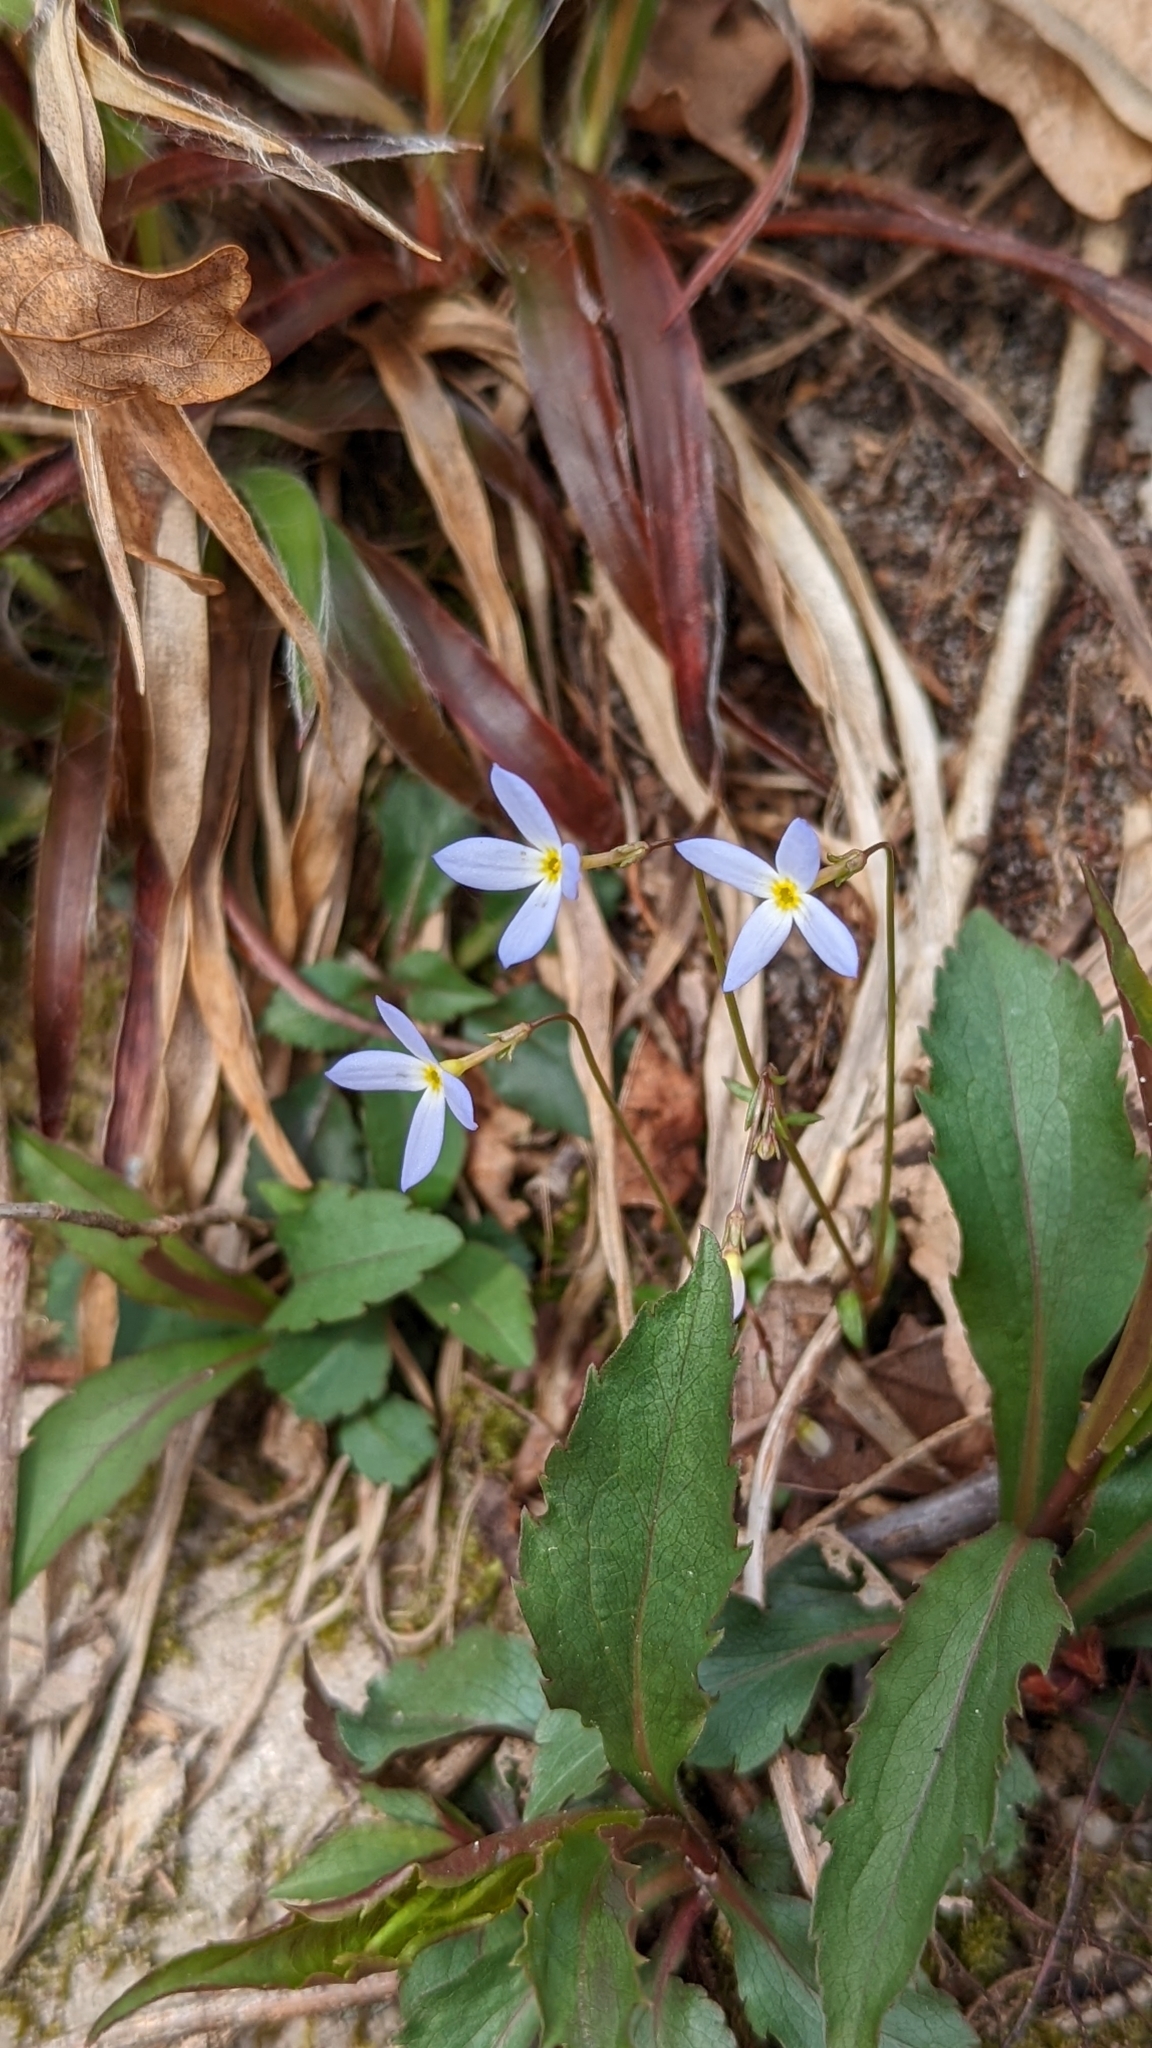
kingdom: Plantae
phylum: Tracheophyta
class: Magnoliopsida
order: Gentianales
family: Rubiaceae
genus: Houstonia
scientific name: Houstonia caerulea
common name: Bluets
